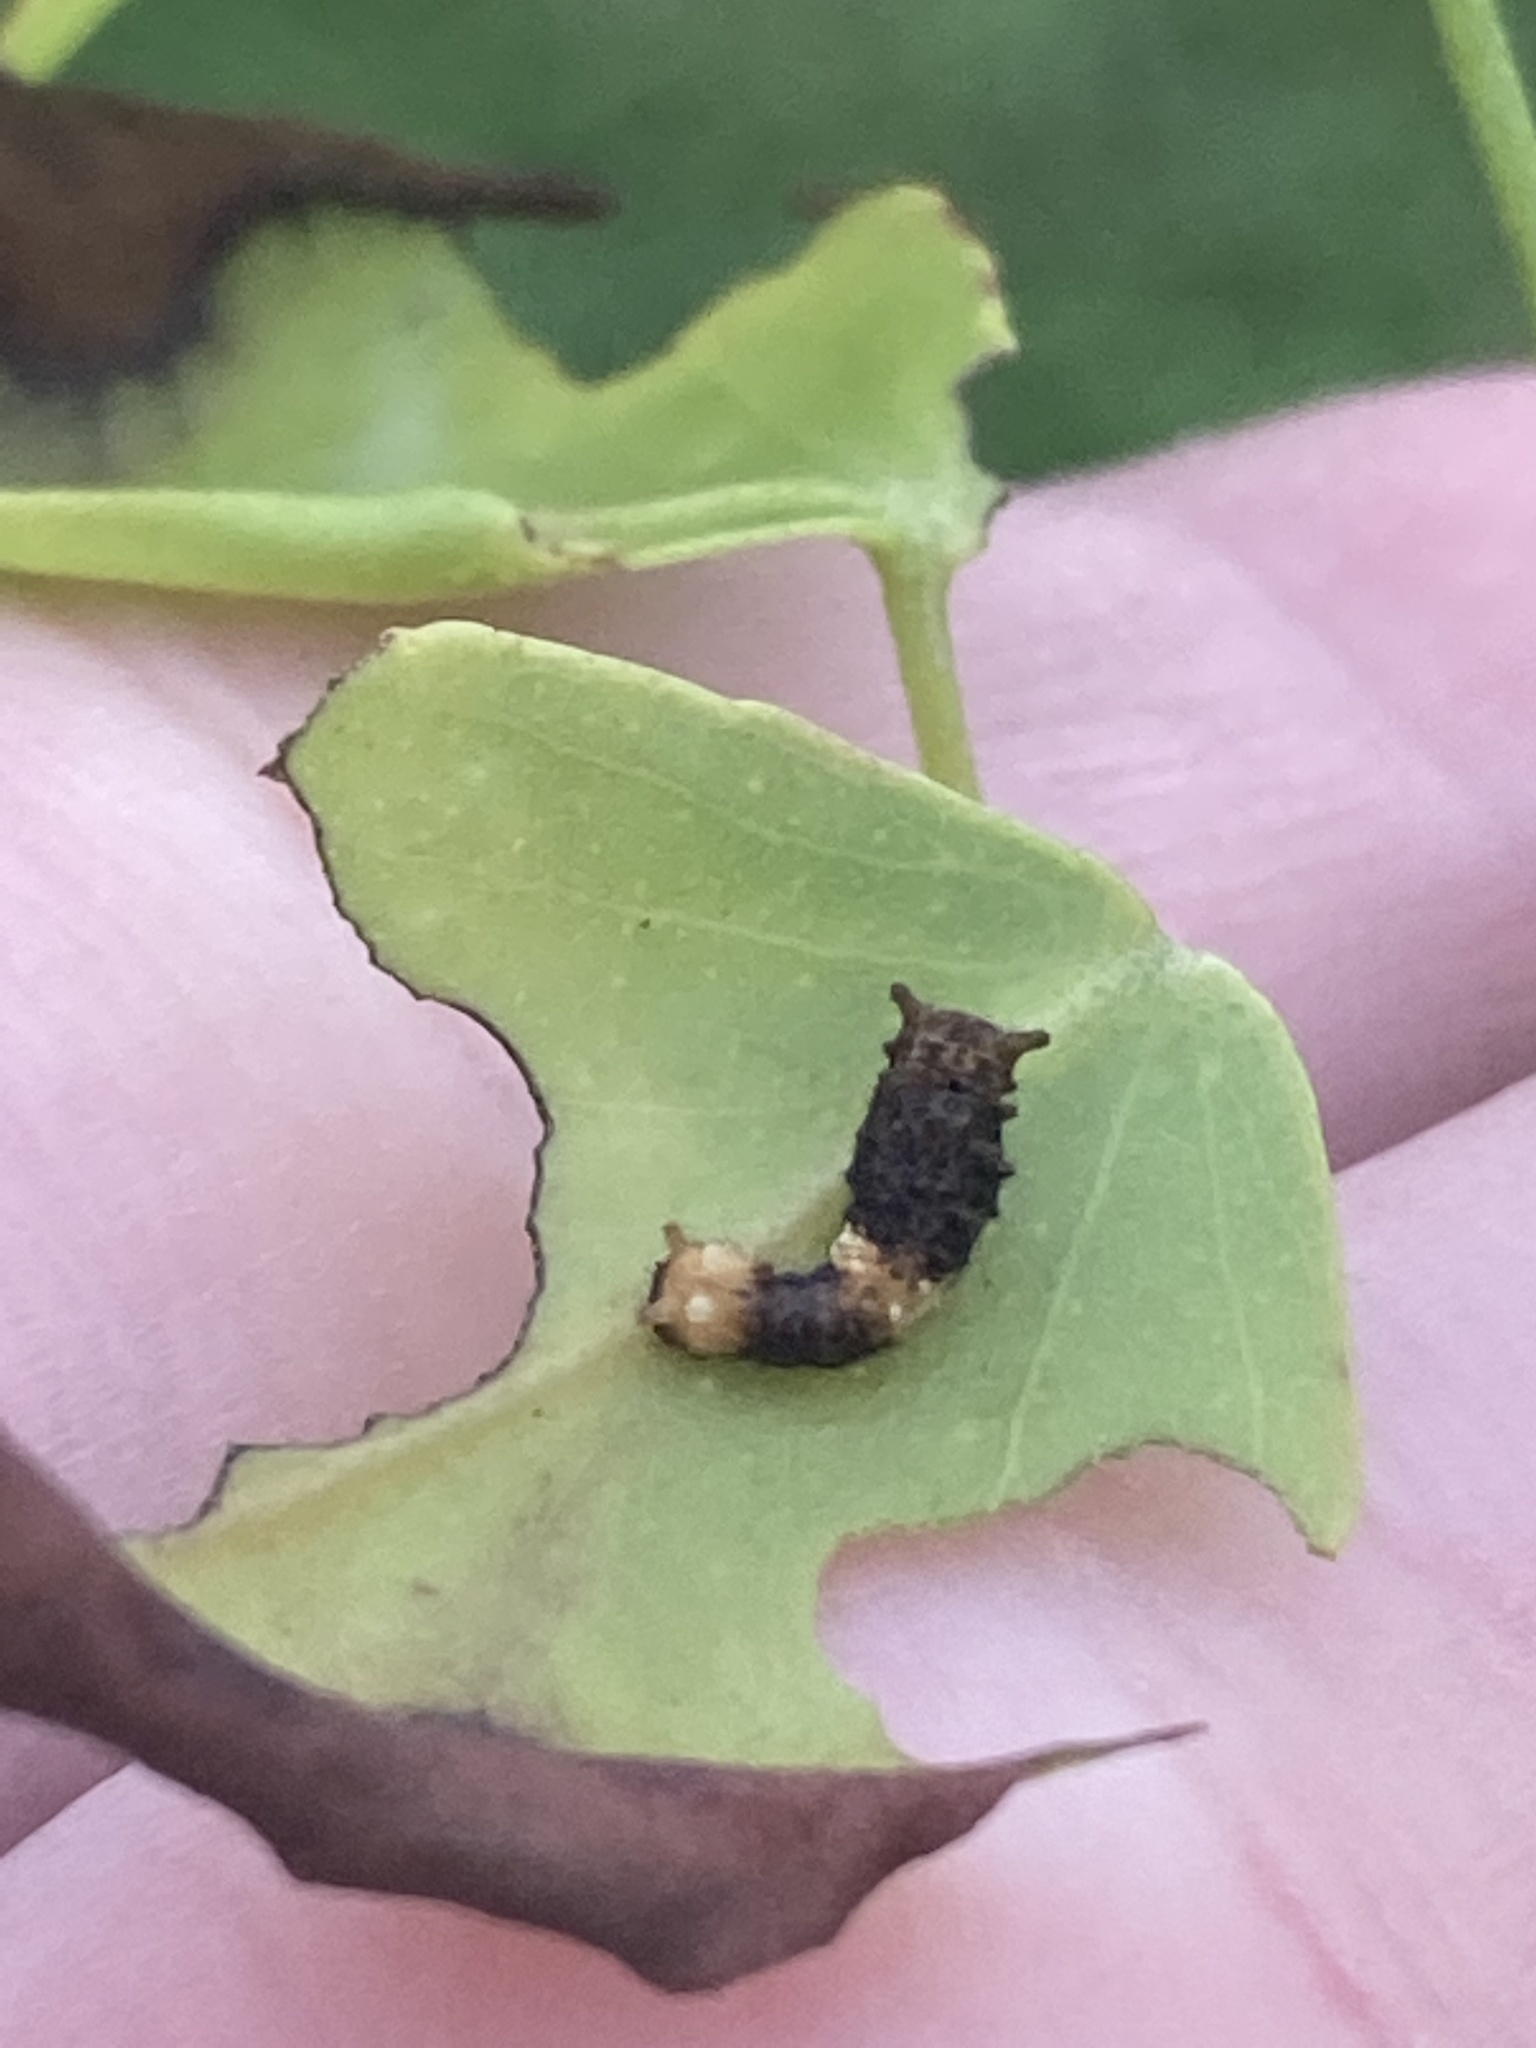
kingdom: Animalia
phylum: Arthropoda
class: Insecta
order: Lepidoptera
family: Papilionidae
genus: Papilio
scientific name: Papilio cresphontes
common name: Giant swallowtail
